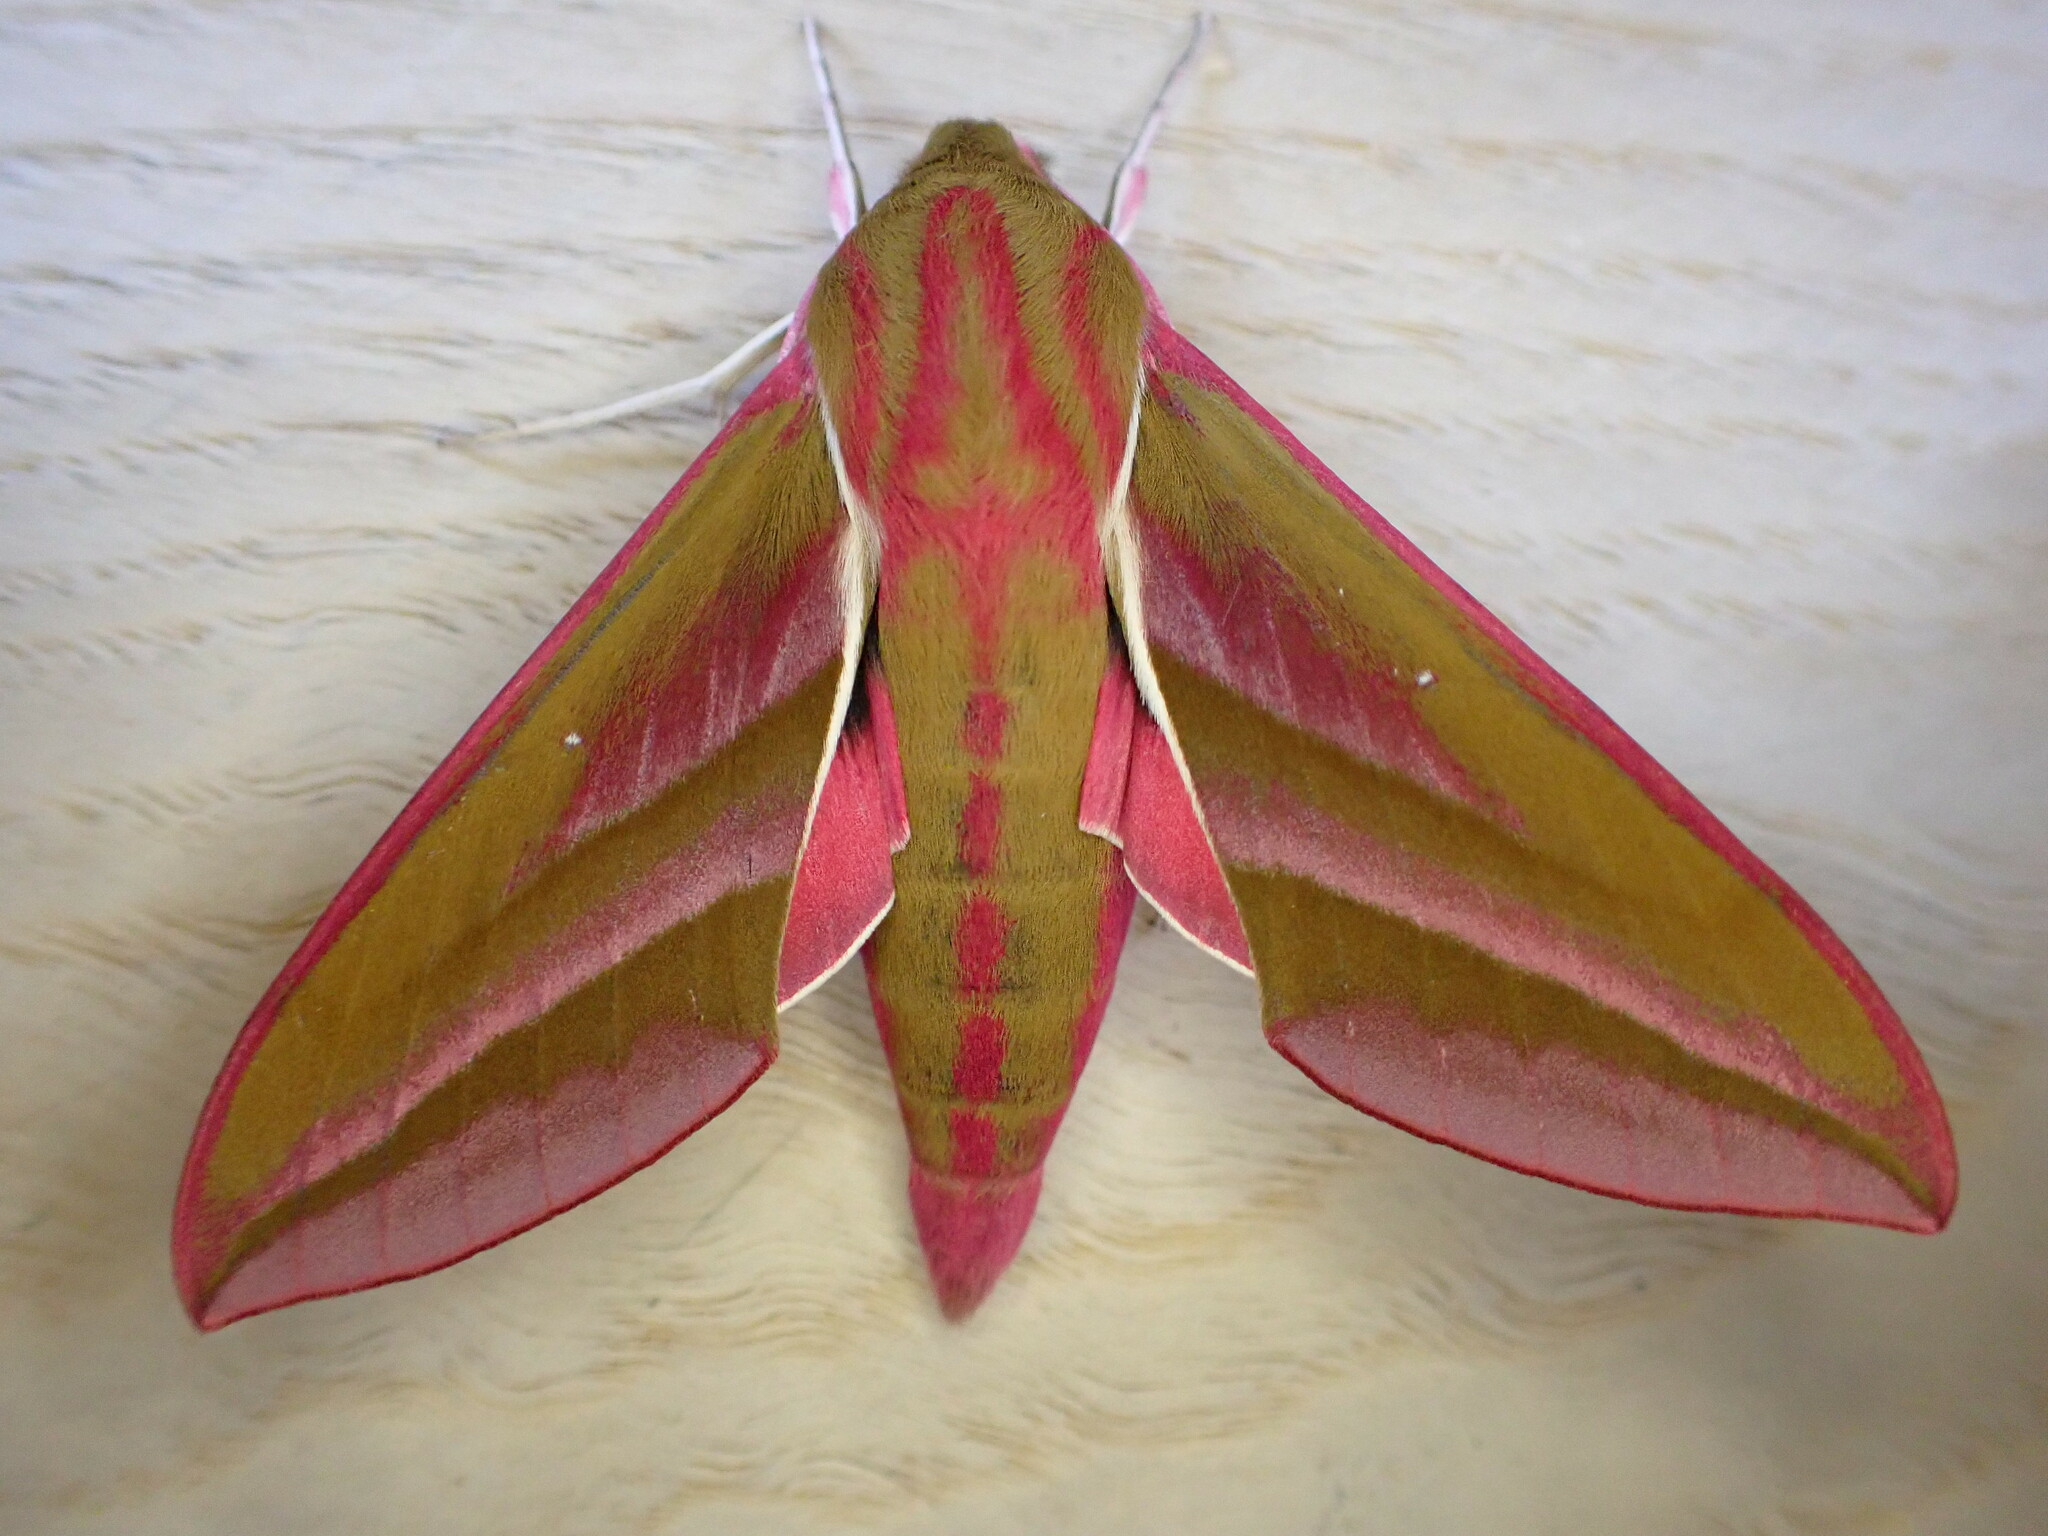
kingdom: Animalia
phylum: Arthropoda
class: Insecta
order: Lepidoptera
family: Sphingidae
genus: Deilephila
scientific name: Deilephila elpenor
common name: Elephant hawk-moth
